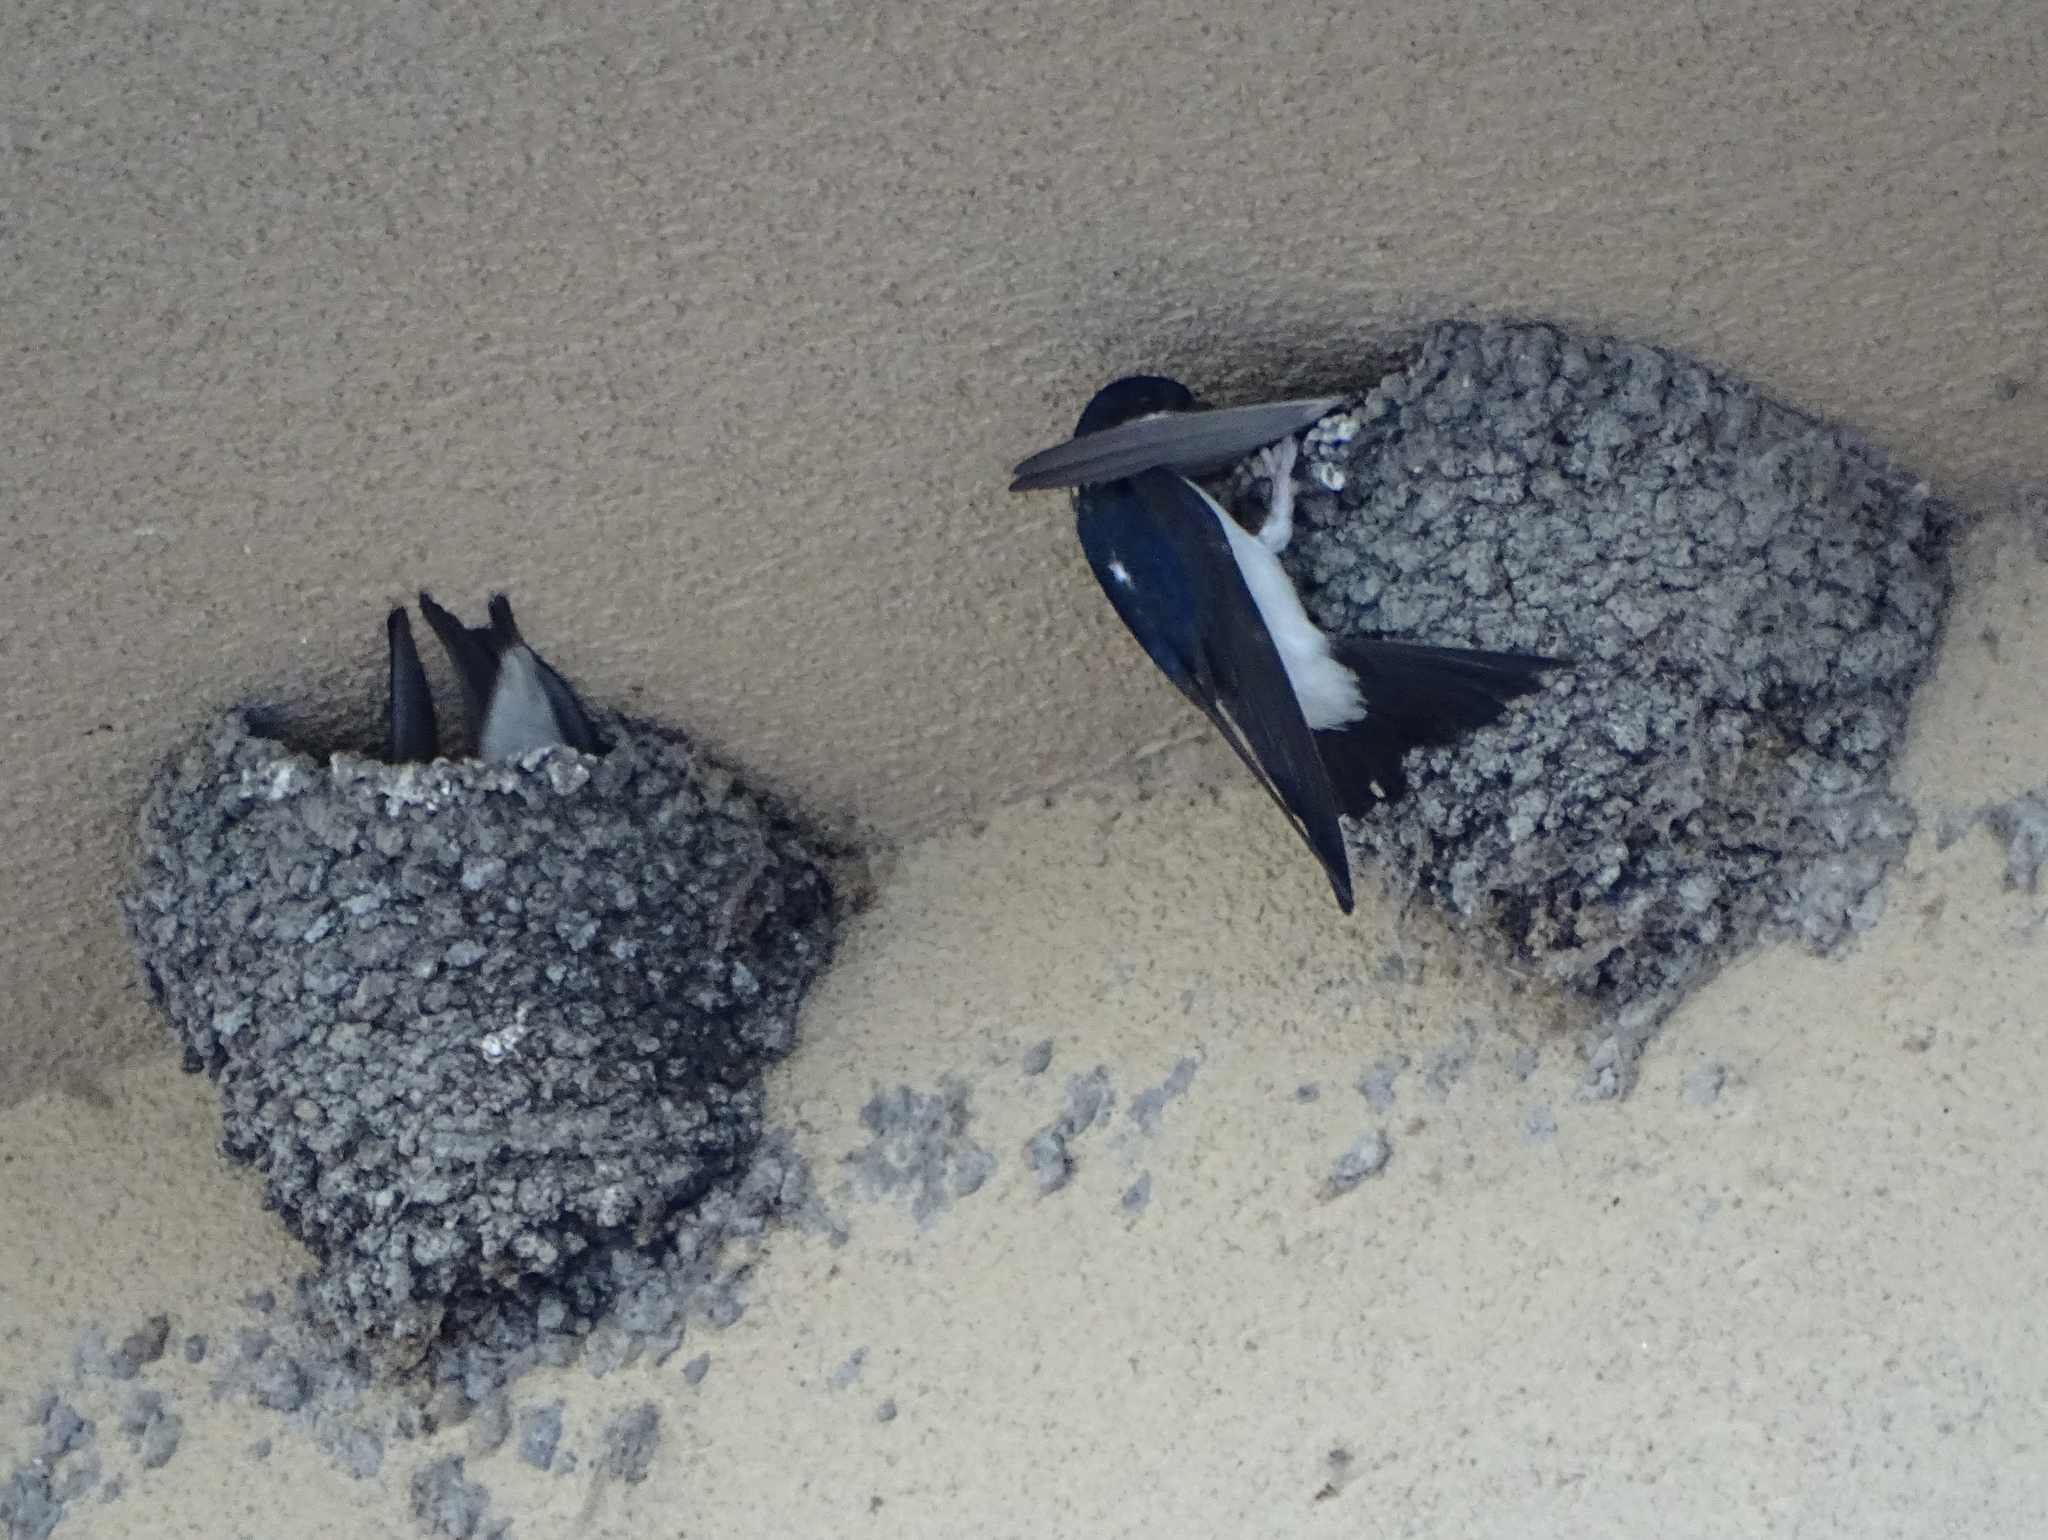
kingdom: Animalia
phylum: Chordata
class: Aves
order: Passeriformes
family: Hirundinidae
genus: Delichon
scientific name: Delichon urbicum
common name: Common house martin
